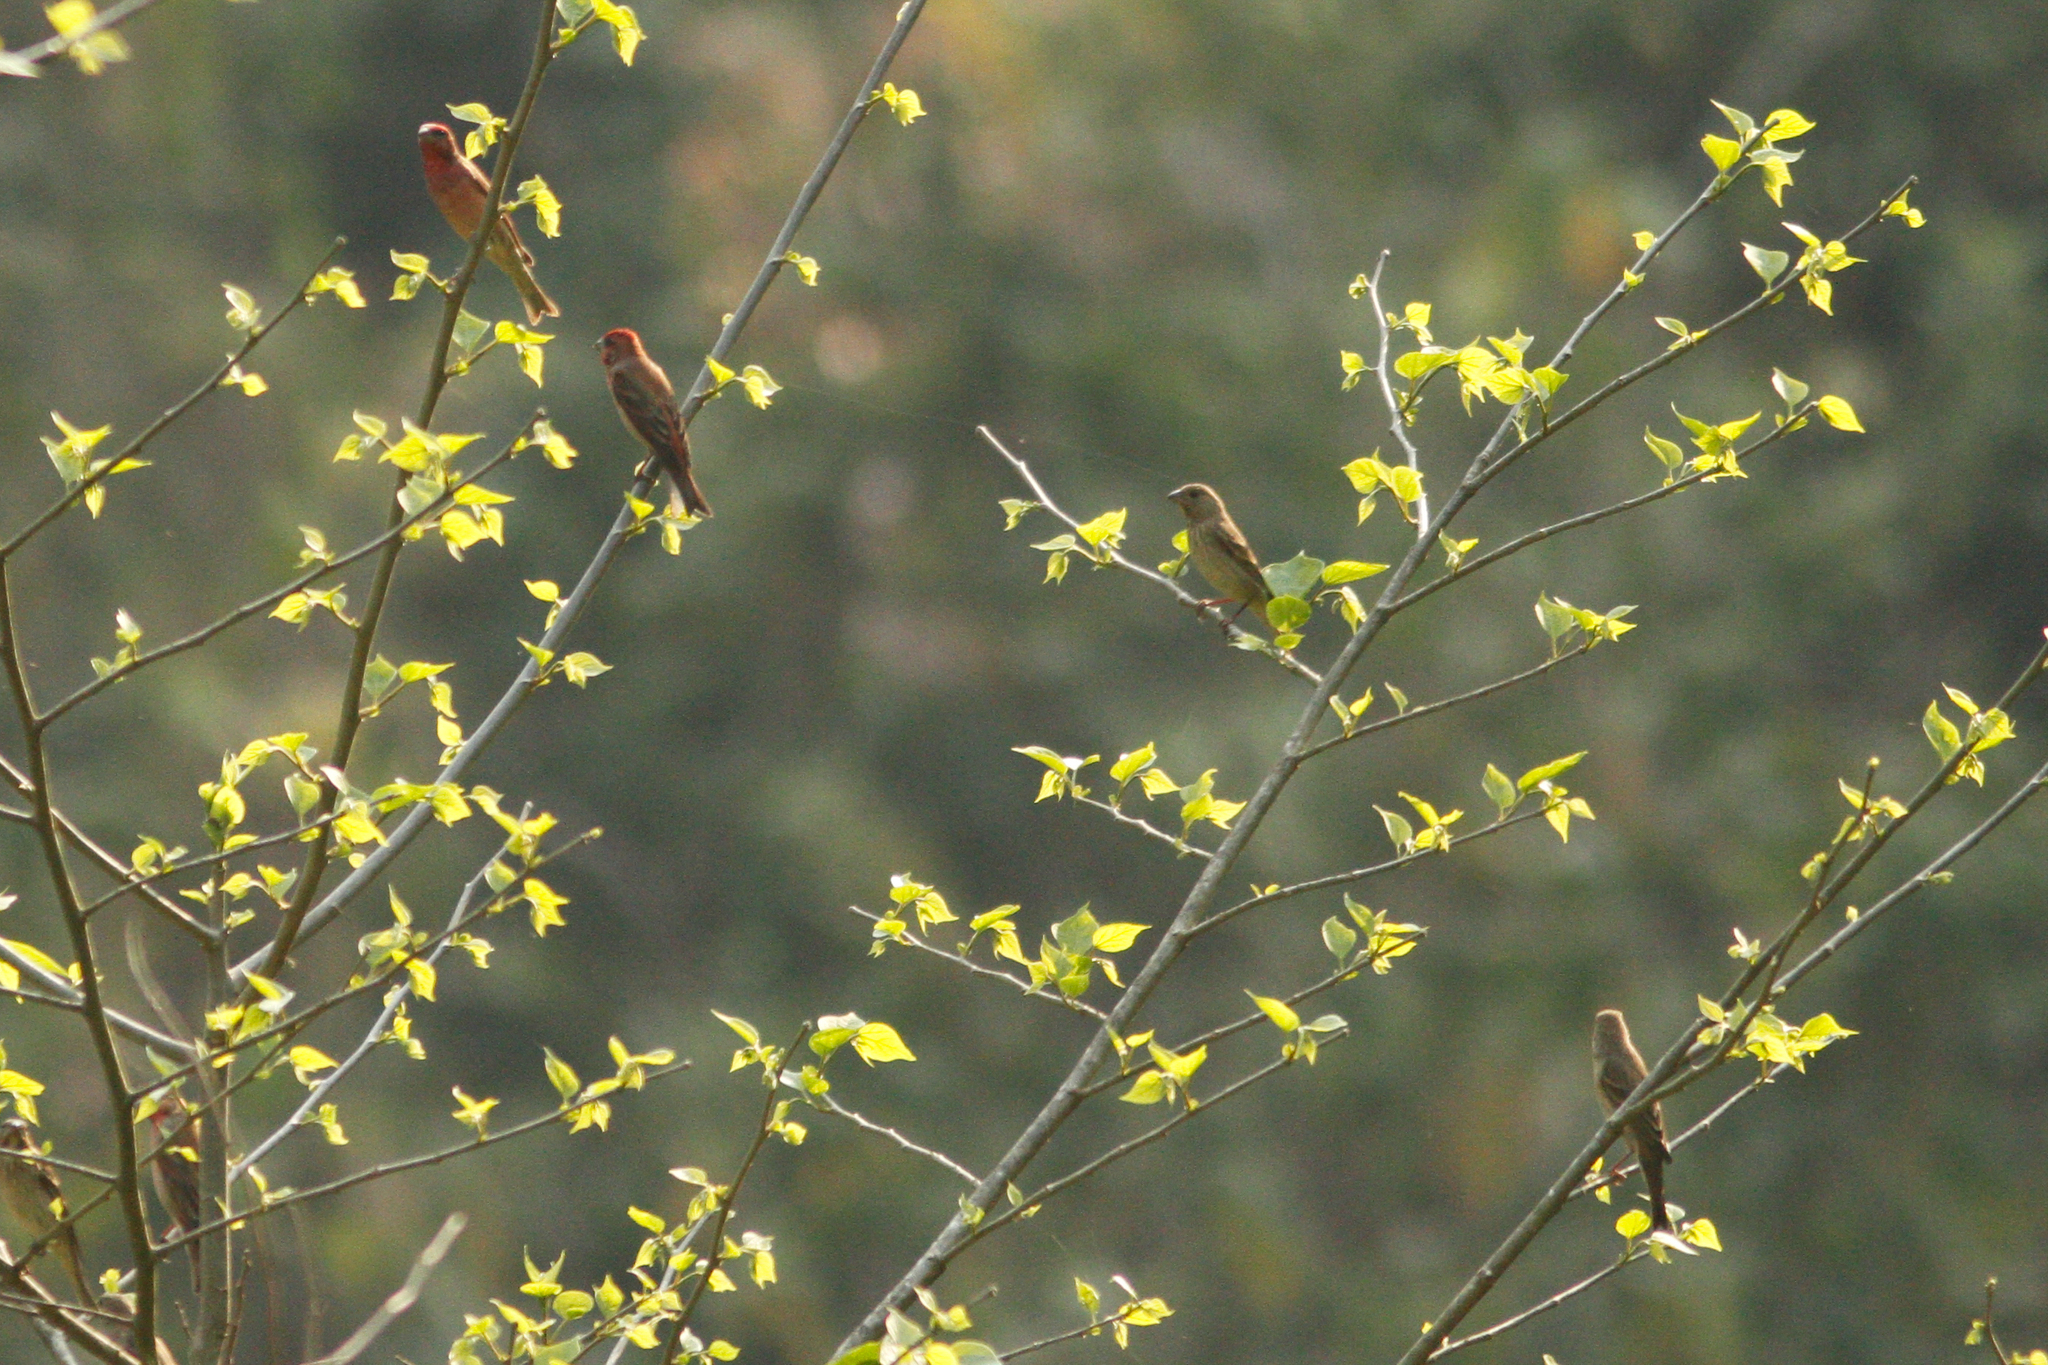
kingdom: Animalia
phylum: Chordata
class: Aves
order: Passeriformes
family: Fringillidae
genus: Carpodacus
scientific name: Carpodacus erythrinus
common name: Common rosefinch
